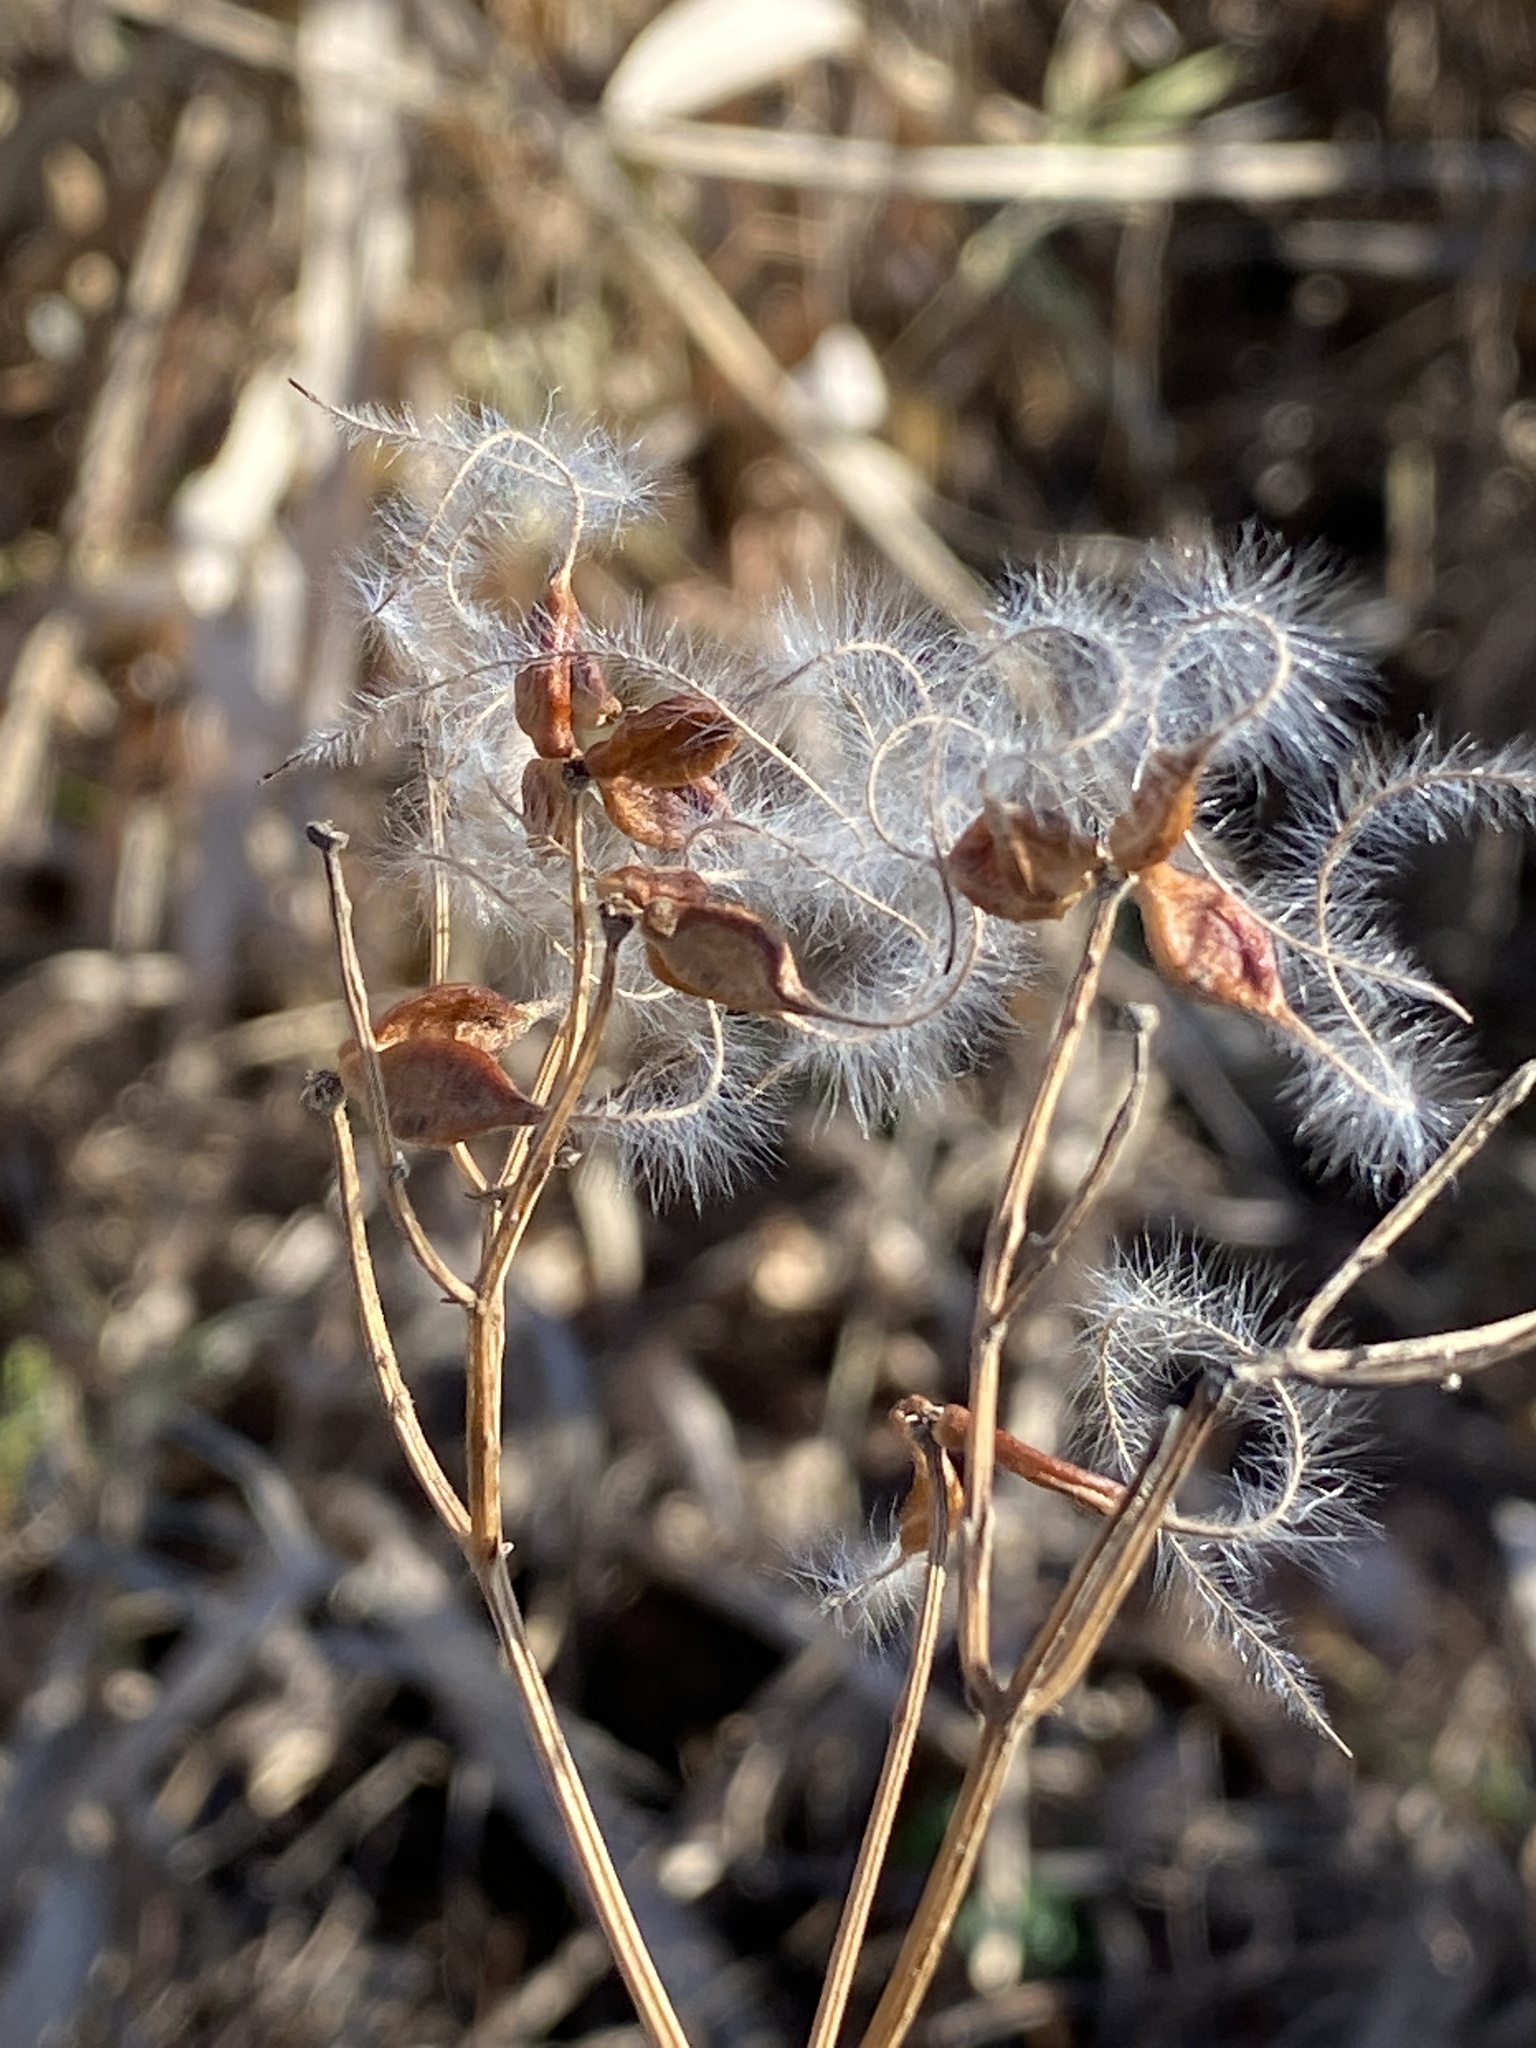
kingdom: Plantae
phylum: Tracheophyta
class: Magnoliopsida
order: Ranunculales
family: Ranunculaceae
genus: Clematis
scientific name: Clematis terniflora
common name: Sweet autumn clematis
